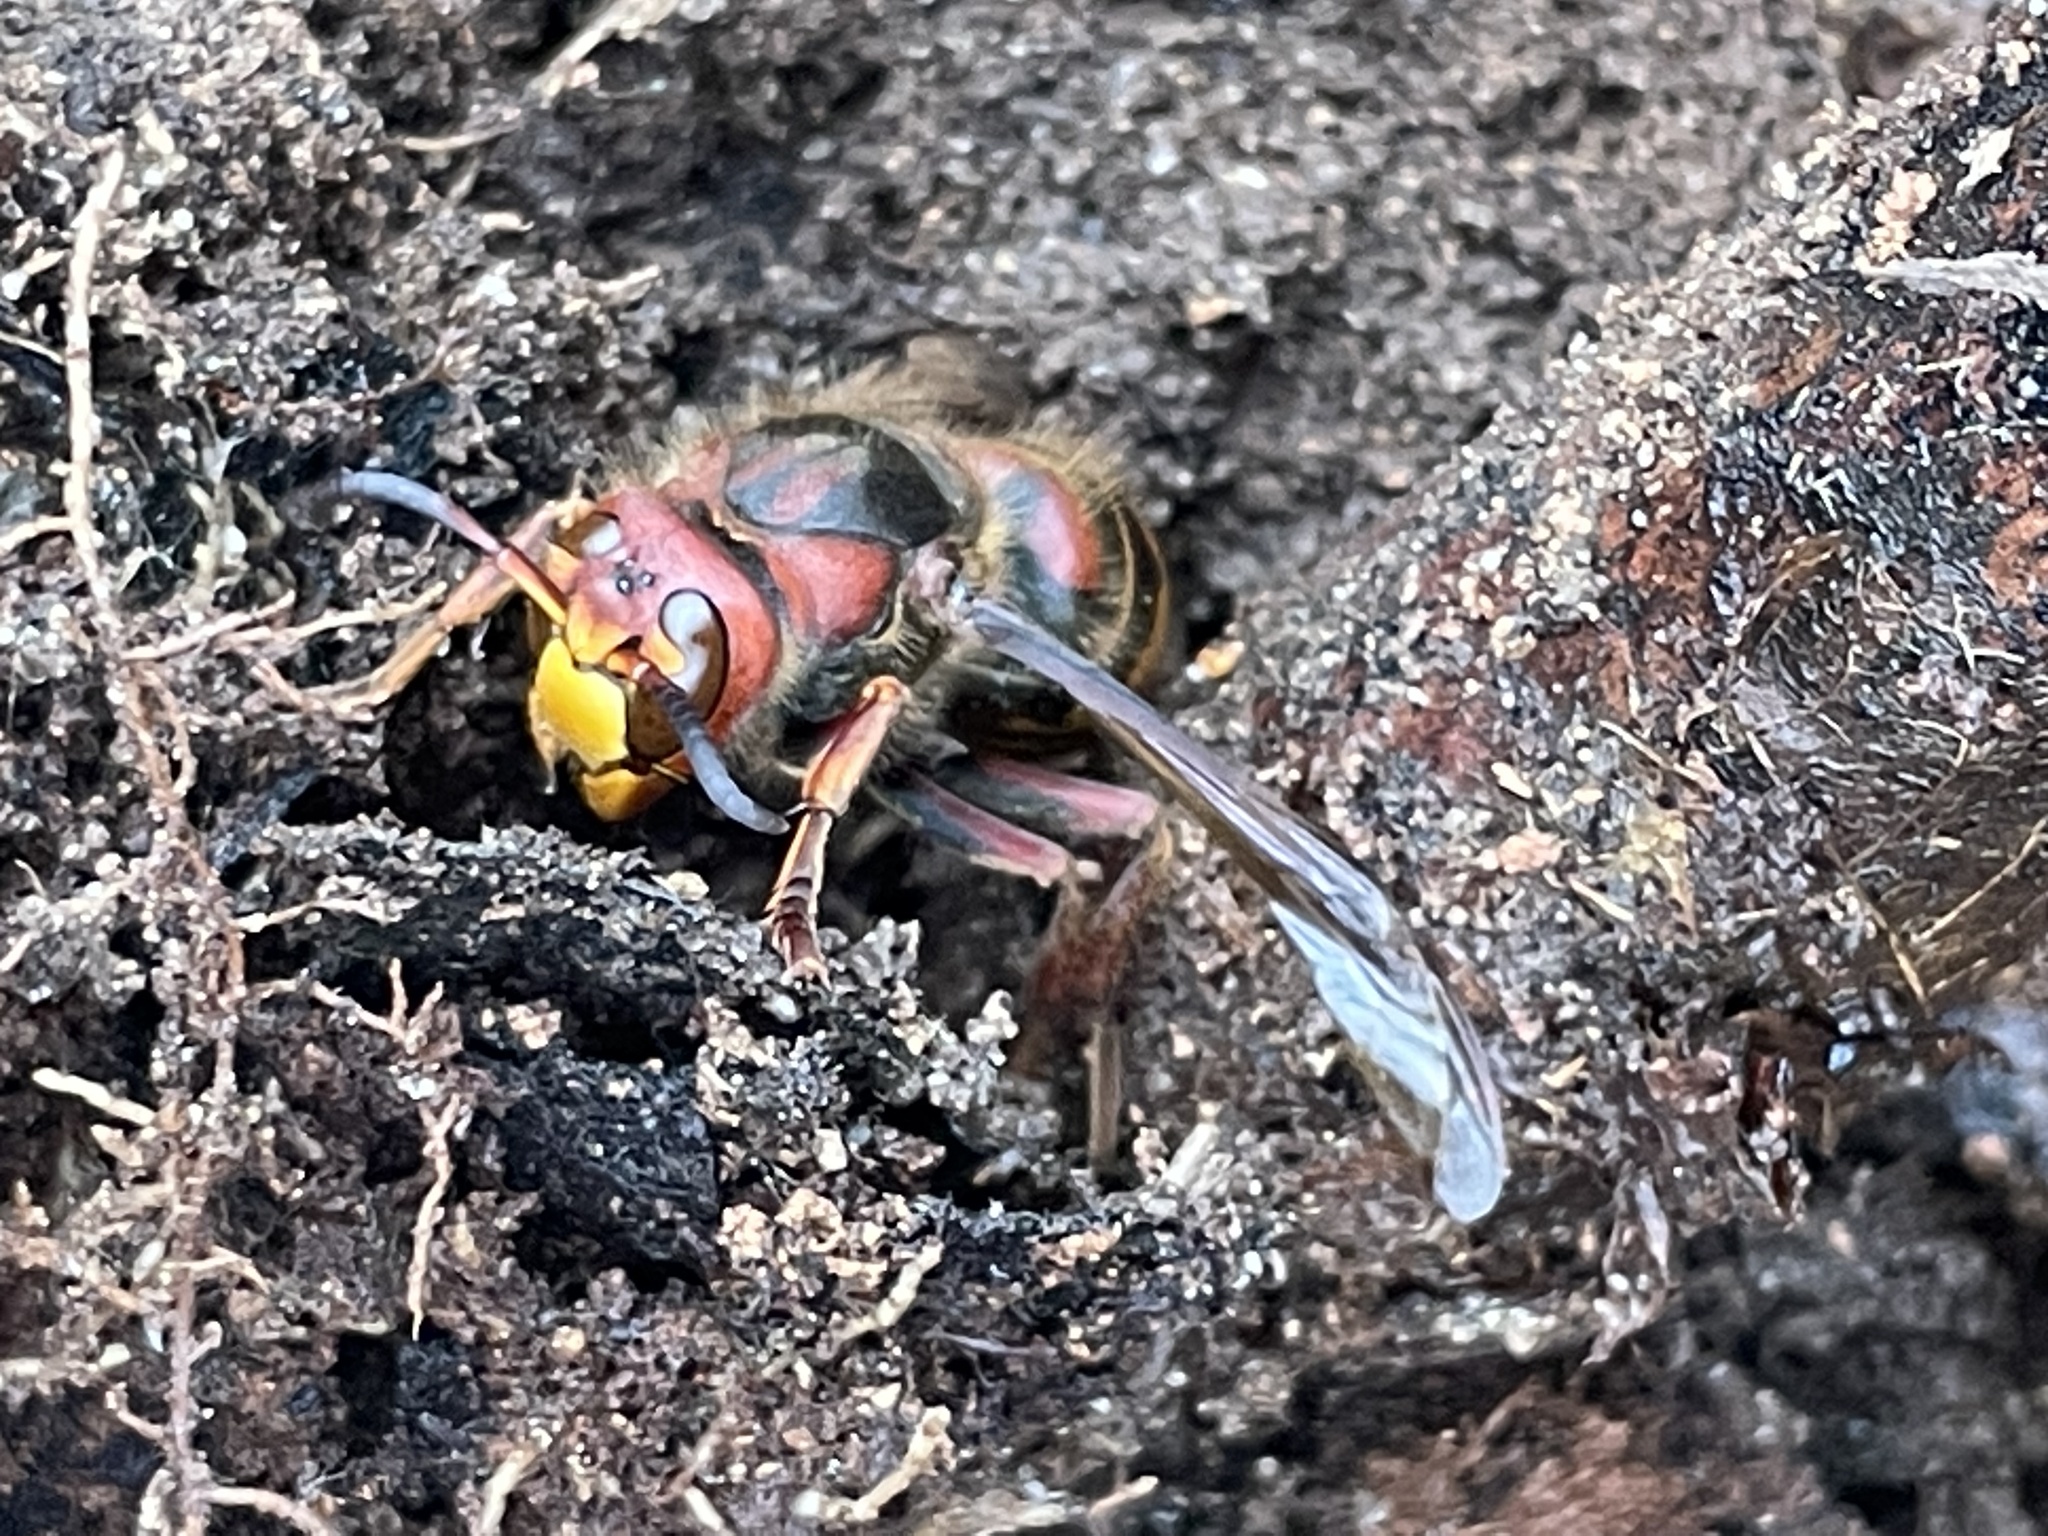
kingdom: Animalia
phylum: Arthropoda
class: Insecta
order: Hymenoptera
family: Vespidae
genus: Vespa
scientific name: Vespa crabro
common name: Hornet
